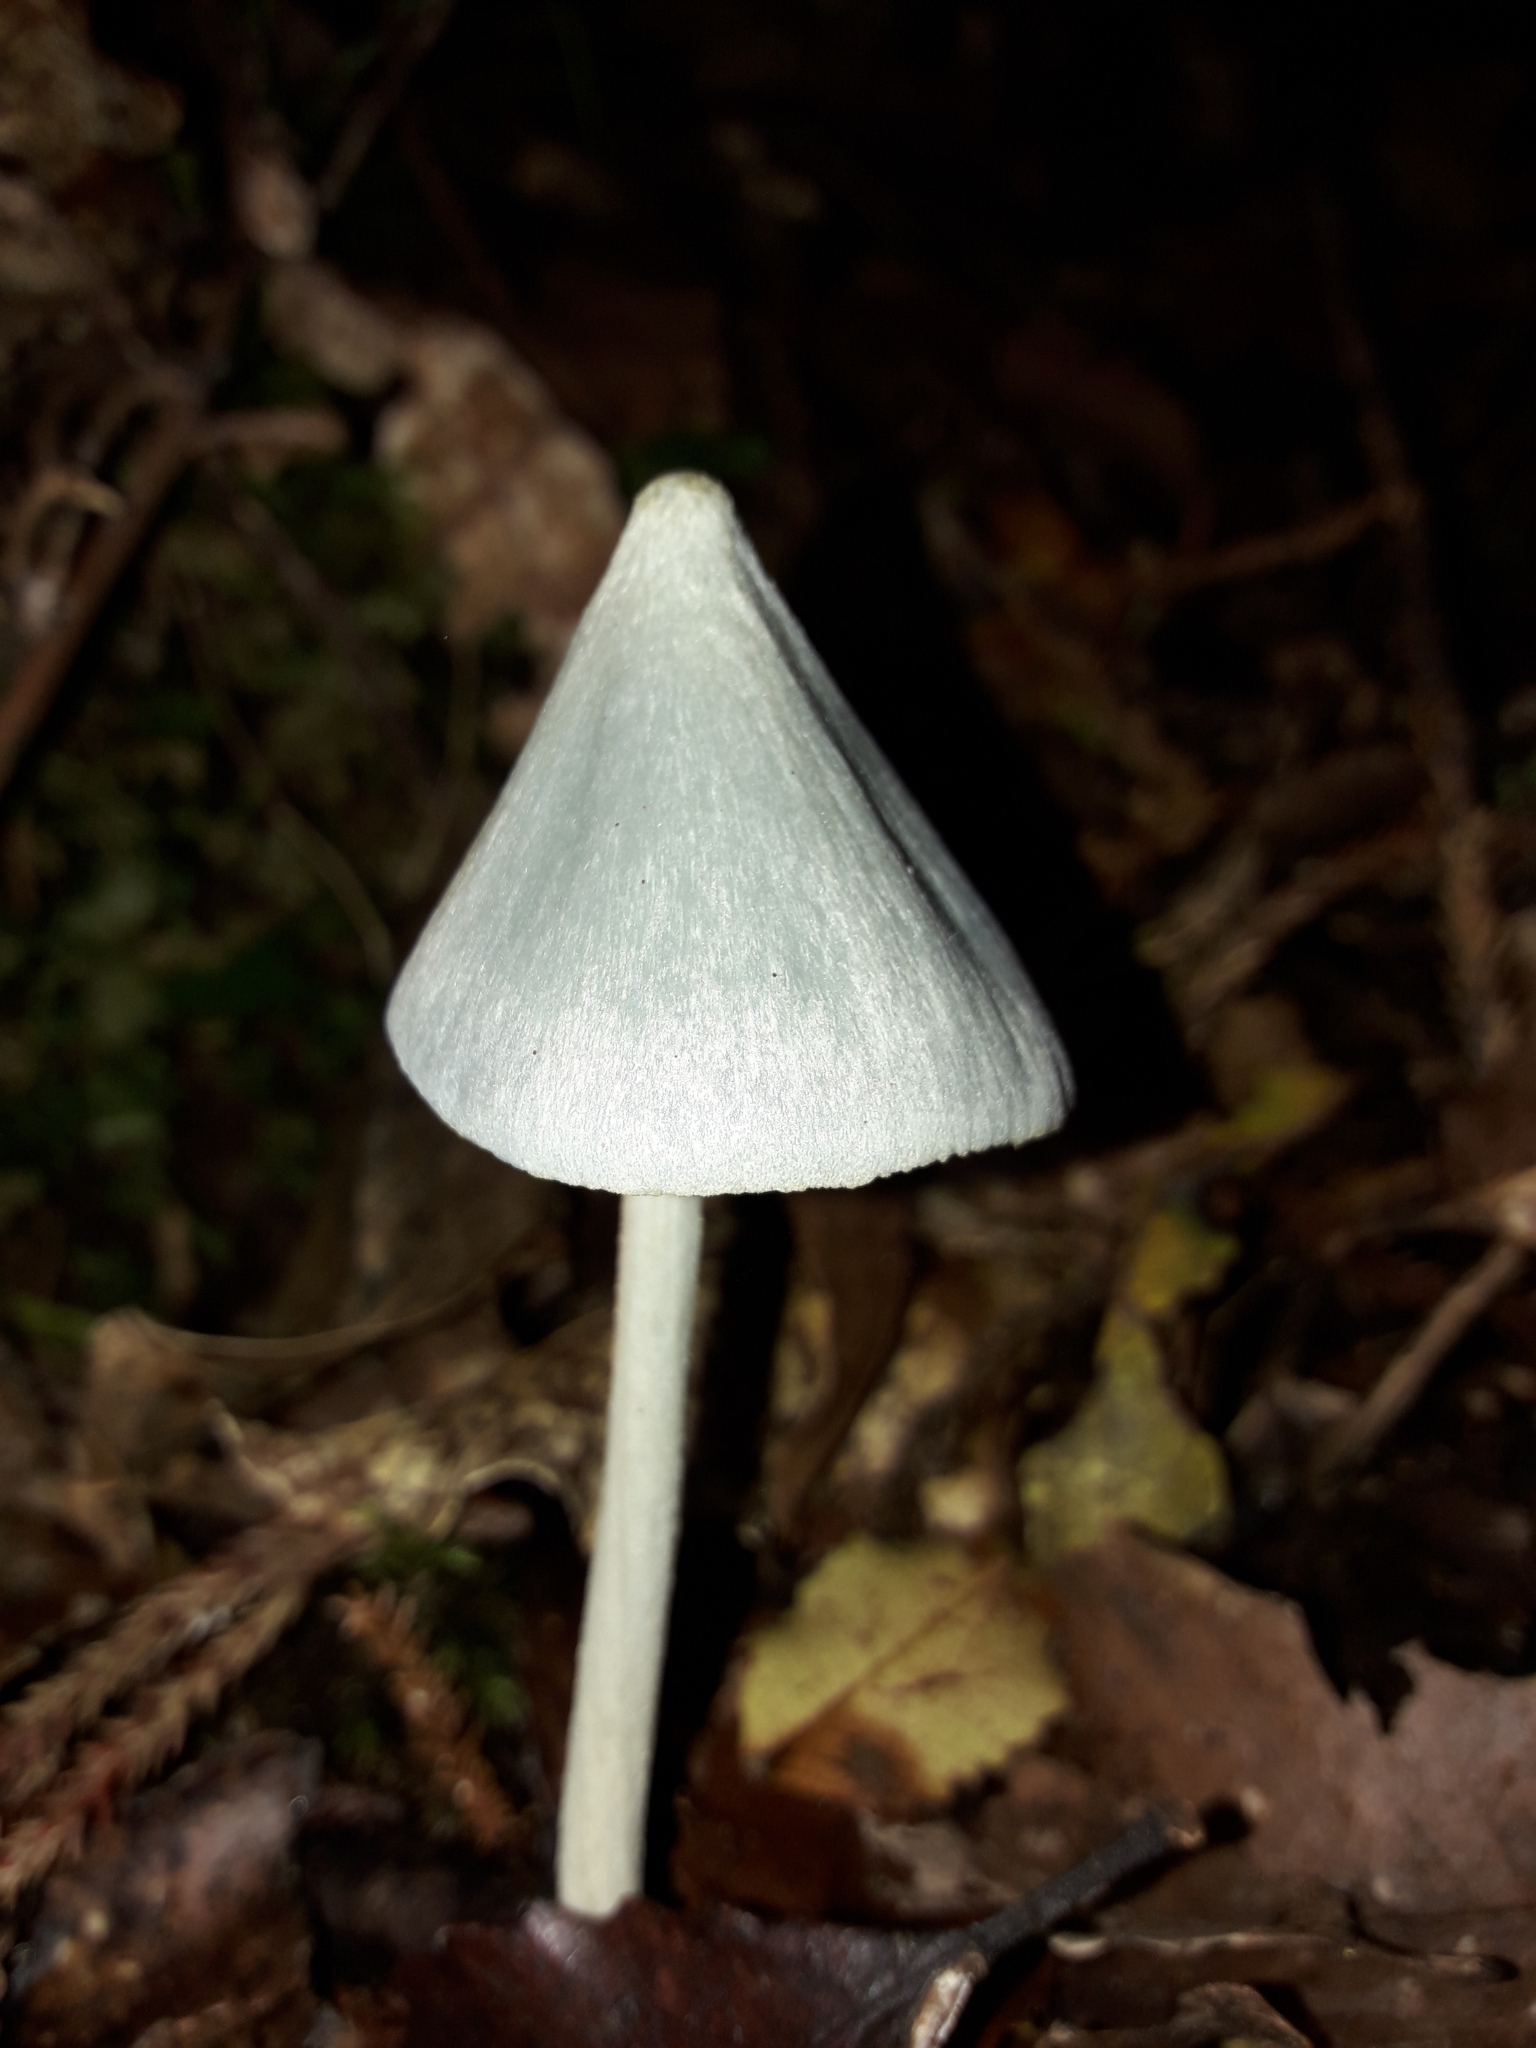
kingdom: Fungi
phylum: Basidiomycota
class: Agaricomycetes
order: Agaricales
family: Entolomataceae
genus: Entoloma
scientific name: Entoloma canoconicum
